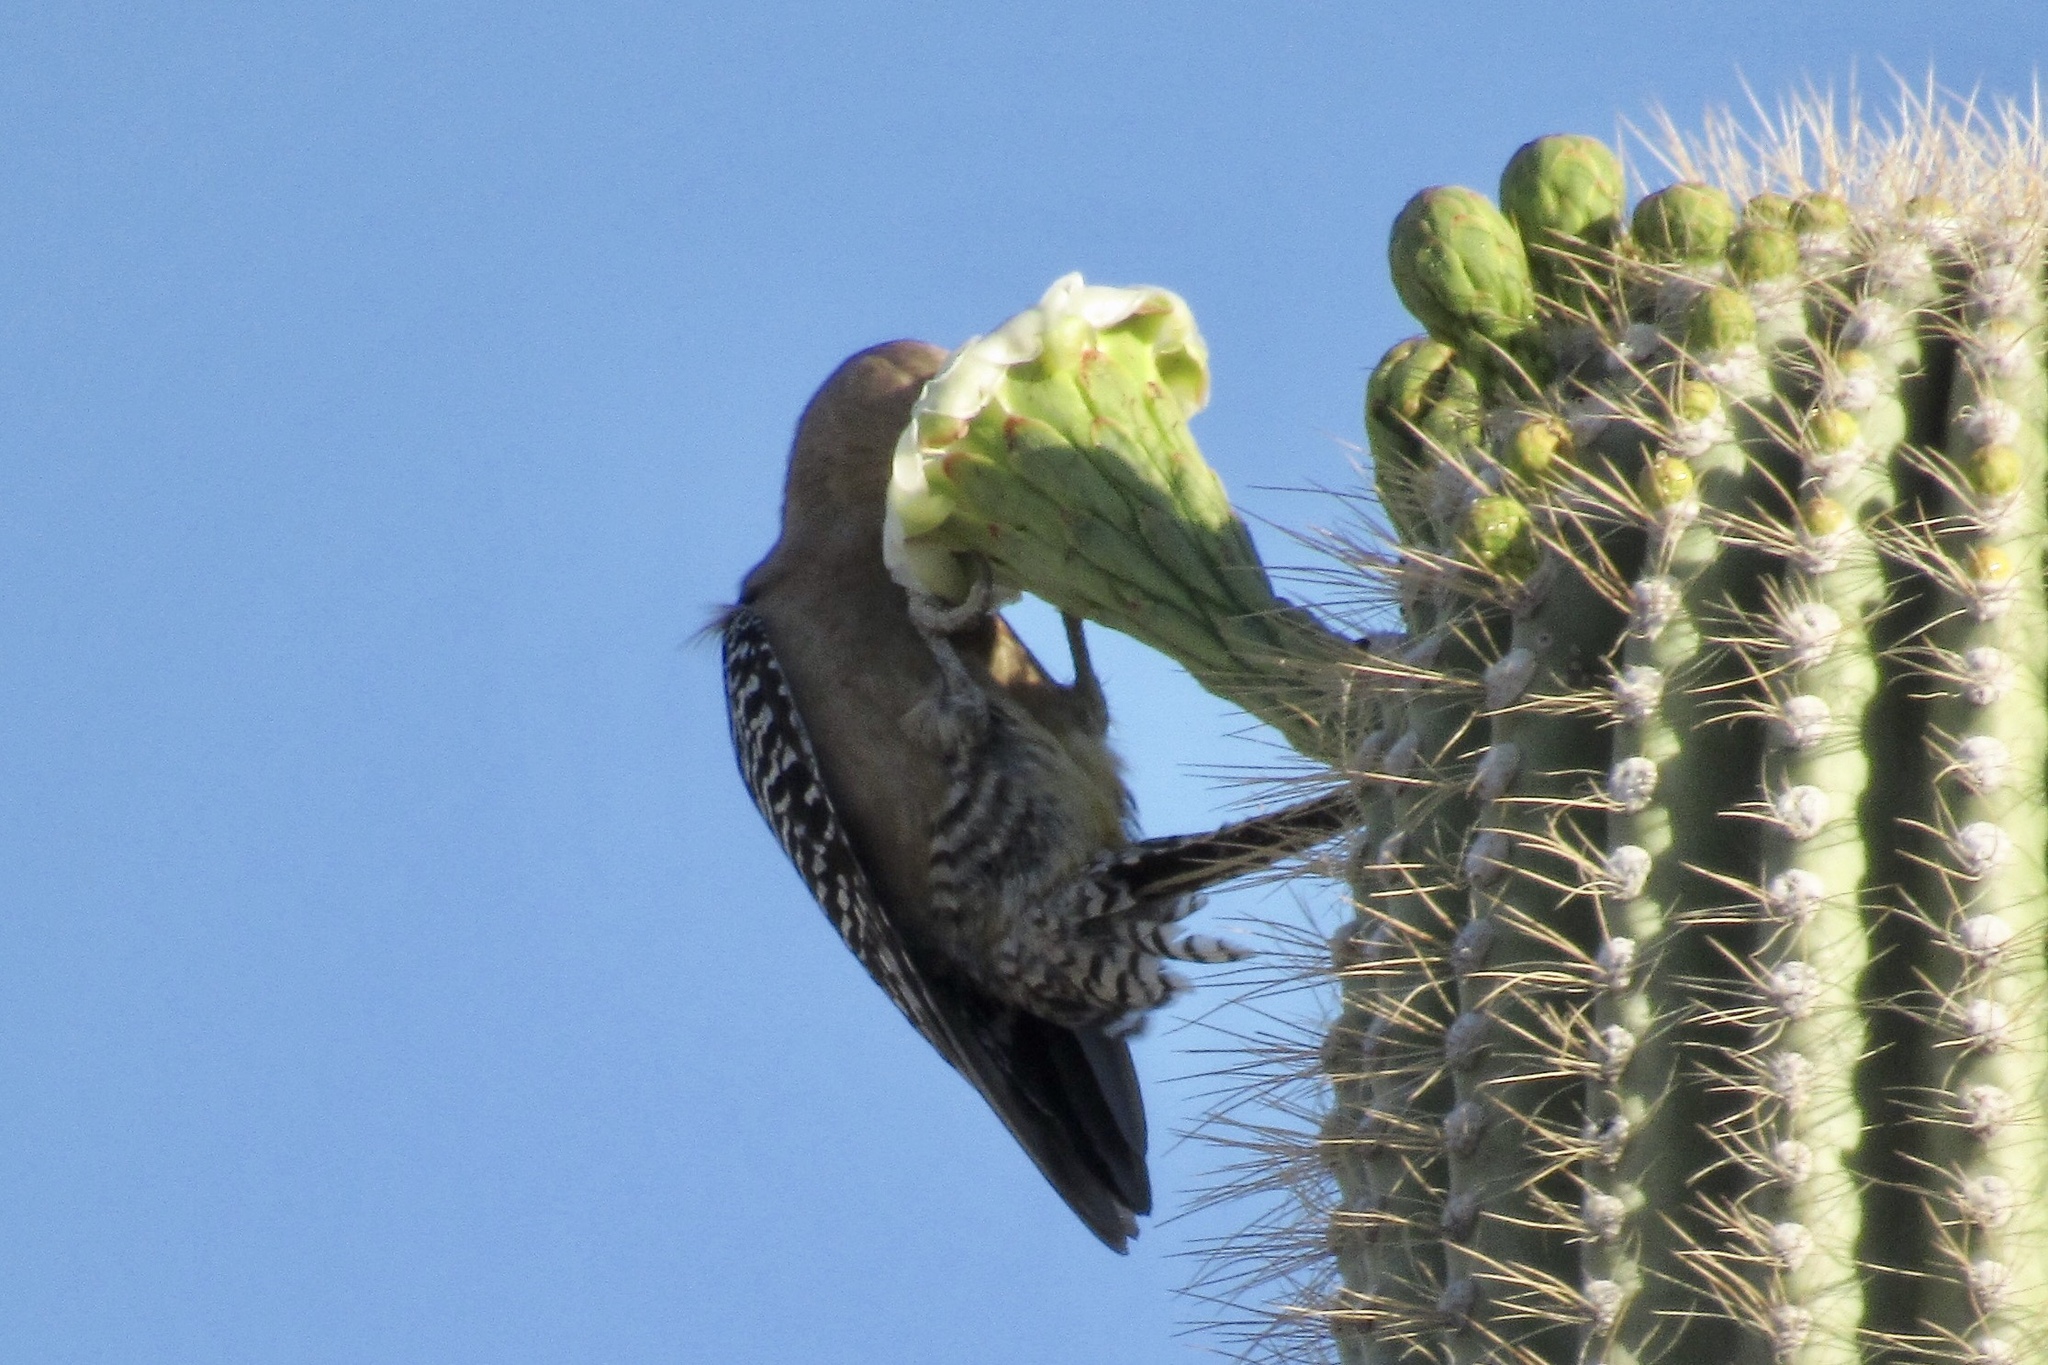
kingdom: Animalia
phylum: Chordata
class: Aves
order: Piciformes
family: Picidae
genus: Melanerpes
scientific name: Melanerpes uropygialis
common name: Gila woodpecker
